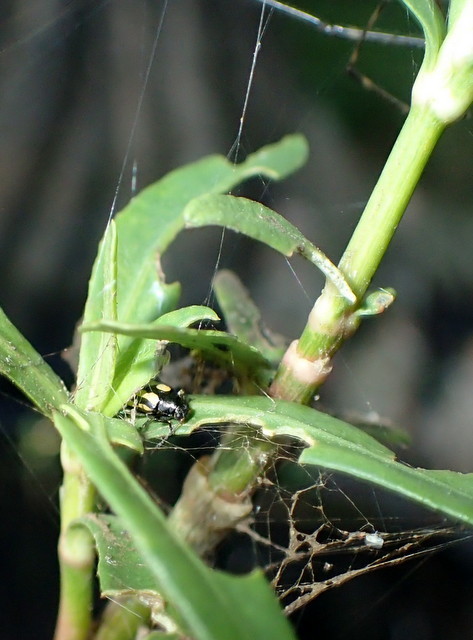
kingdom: Animalia
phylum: Arthropoda
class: Insecta
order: Coleoptera
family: Chrysomelidae
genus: Agasicles
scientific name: Agasicles hygrophila
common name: Alligatorweed flea beetle
